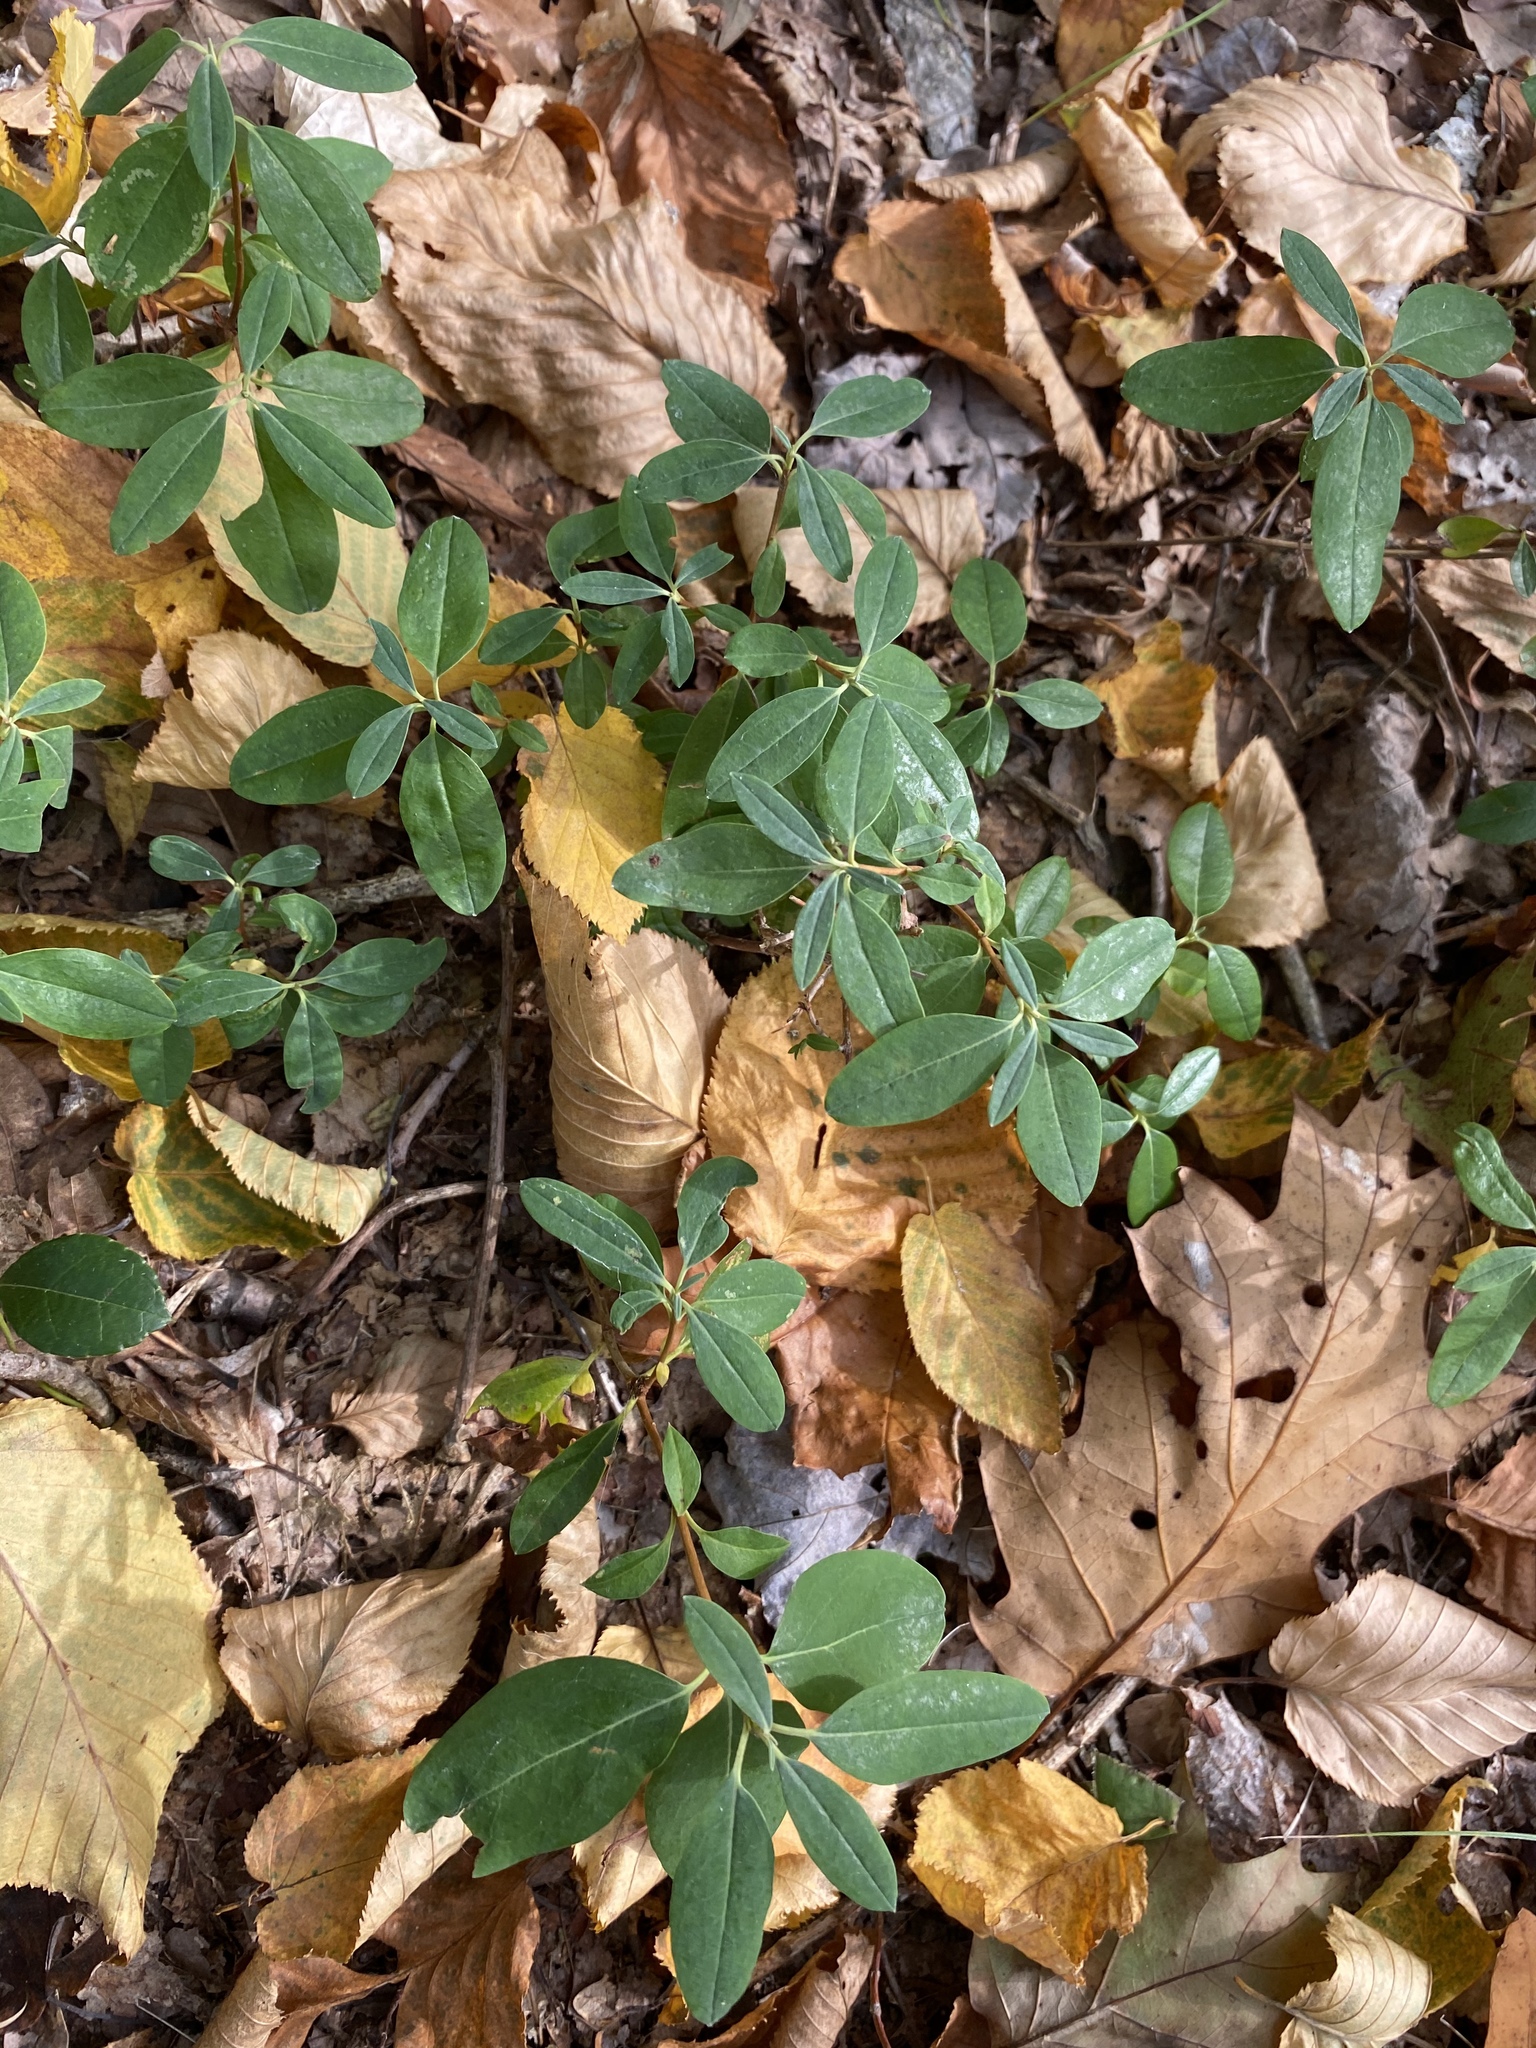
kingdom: Plantae
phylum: Tracheophyta
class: Magnoliopsida
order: Ericales
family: Ericaceae
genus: Kalmia
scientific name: Kalmia angustifolia
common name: Sheep-laurel
